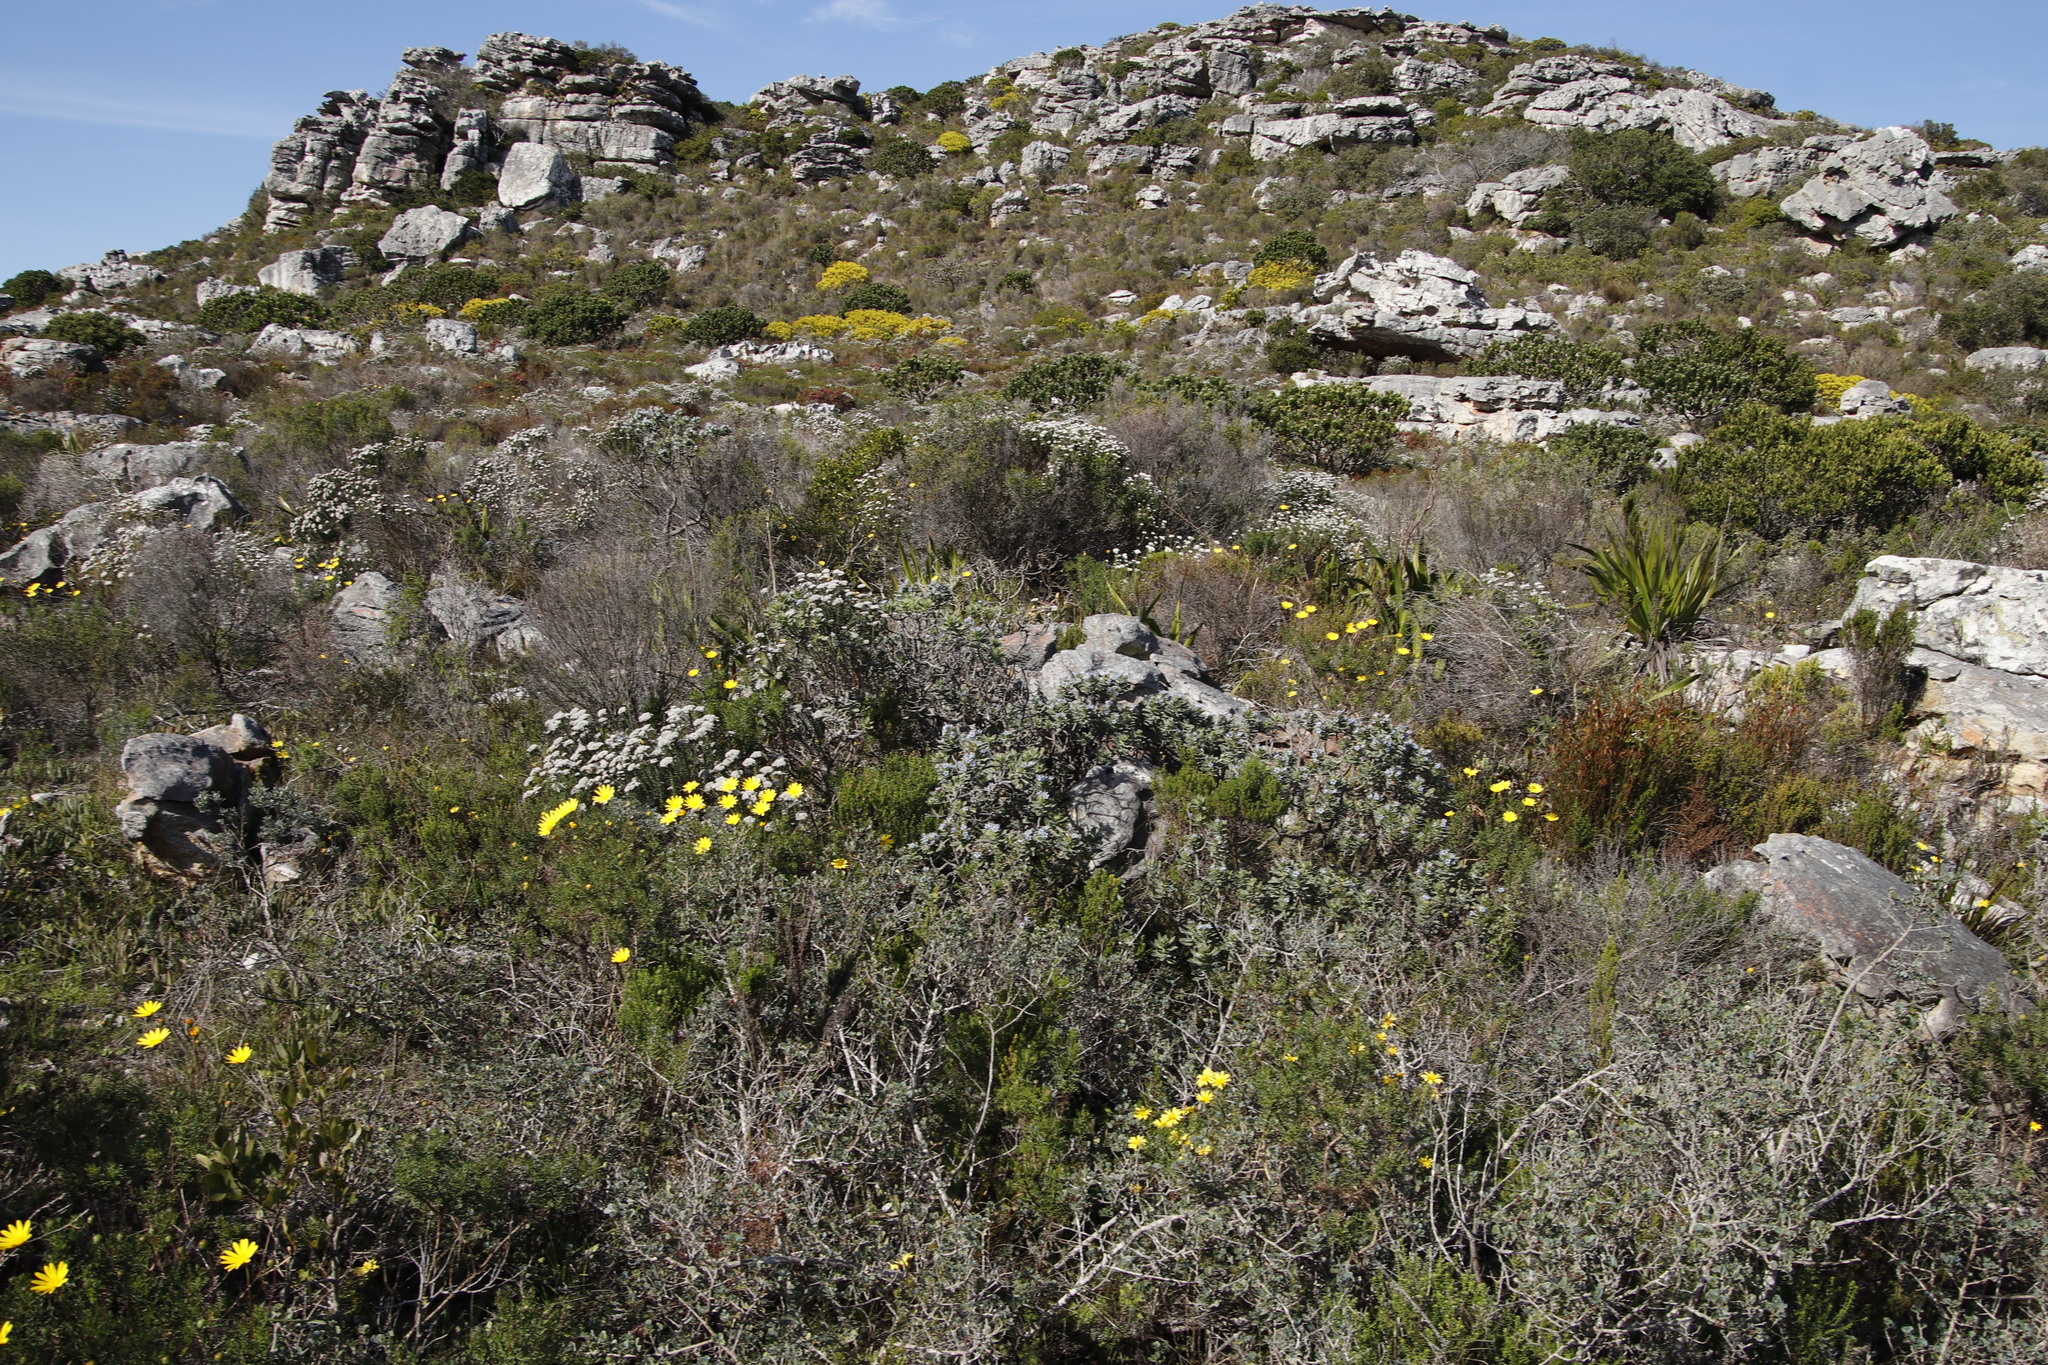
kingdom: Plantae
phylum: Tracheophyta
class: Magnoliopsida
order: Boraginales
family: Boraginaceae
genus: Lobostemon
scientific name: Lobostemon montanus
